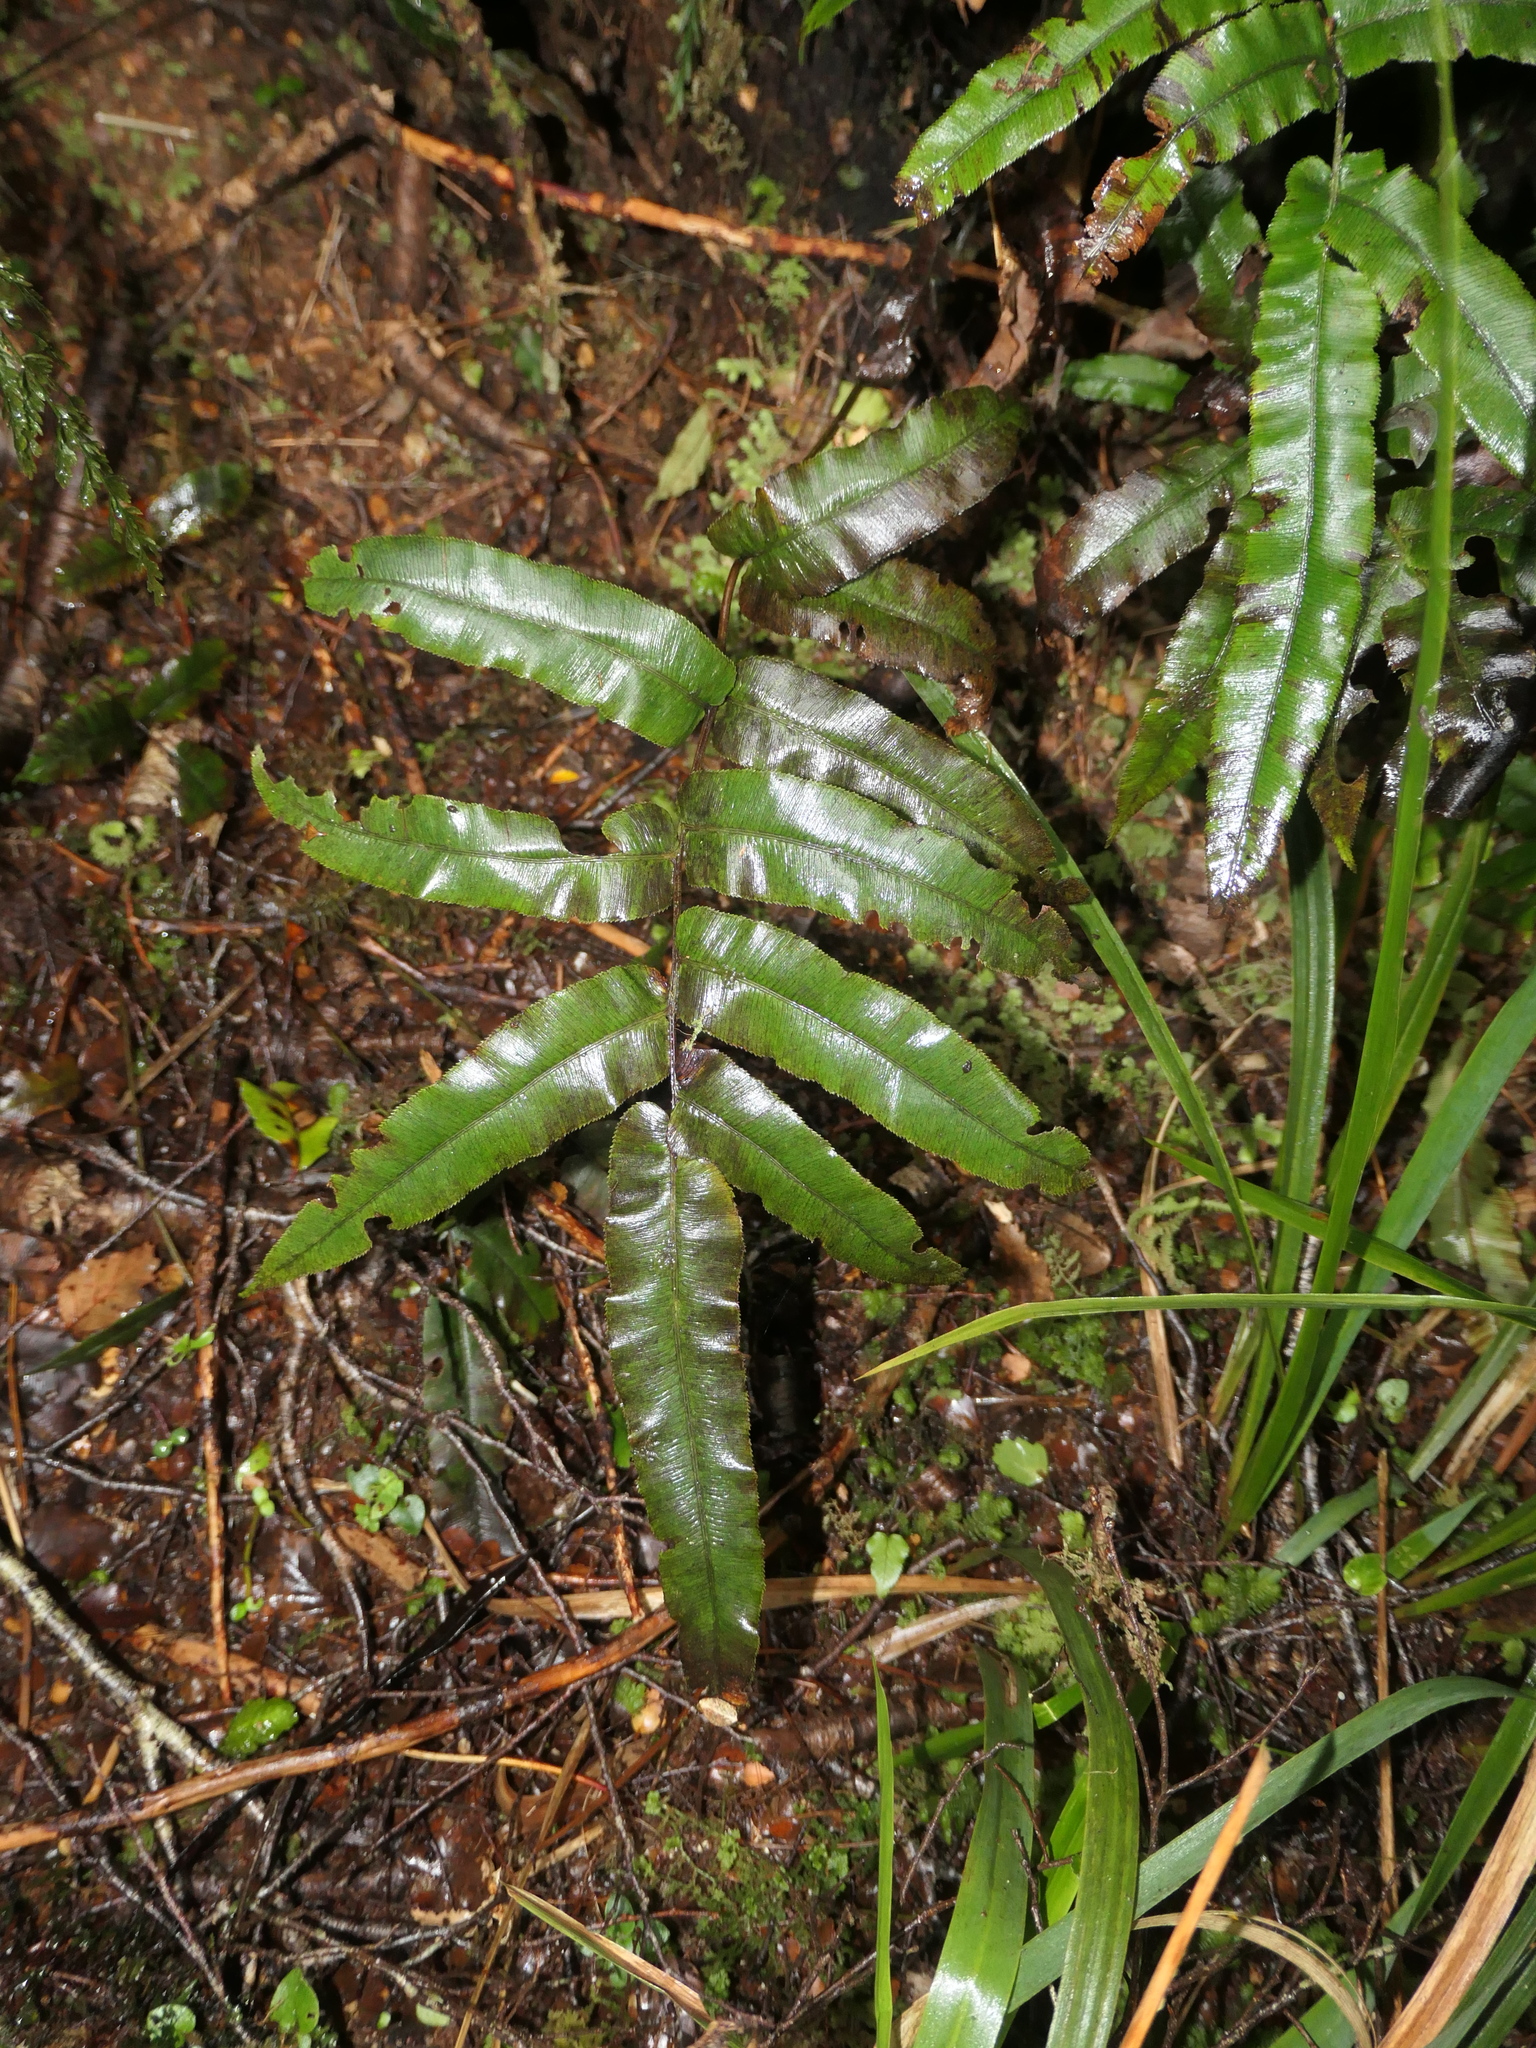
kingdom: Plantae
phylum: Tracheophyta
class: Polypodiopsida
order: Polypodiales
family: Blechnaceae
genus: Parablechnum
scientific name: Parablechnum procerum
